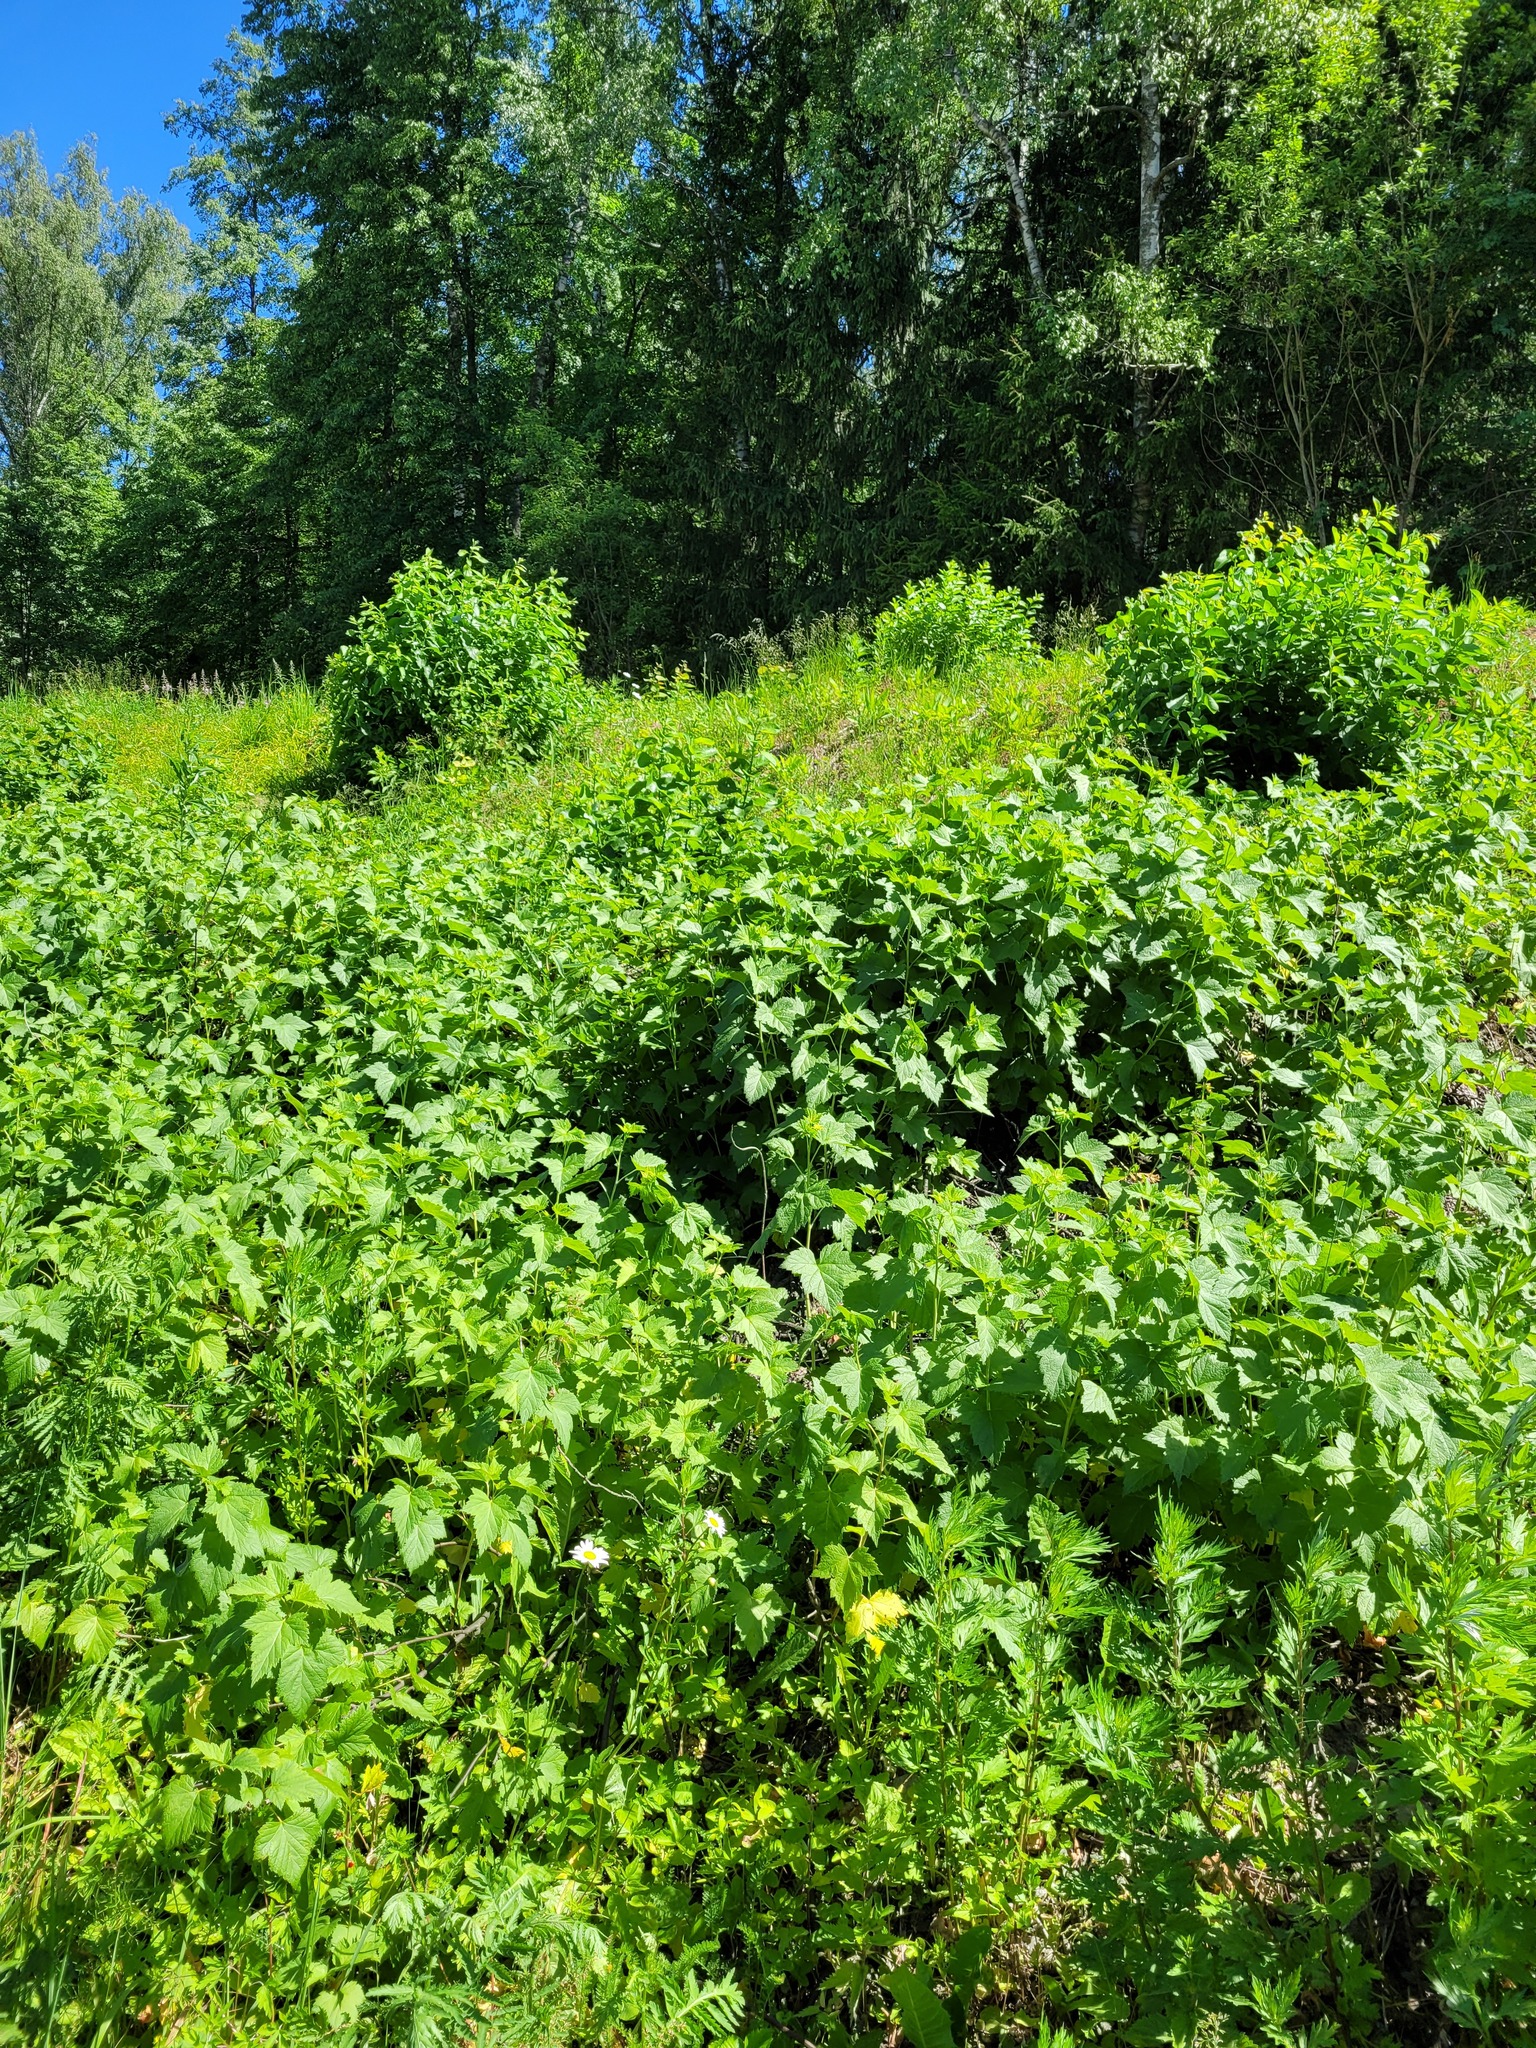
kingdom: Plantae
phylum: Tracheophyta
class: Magnoliopsida
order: Saxifragales
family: Grossulariaceae
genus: Ribes
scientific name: Ribes nigrum
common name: Black currant
